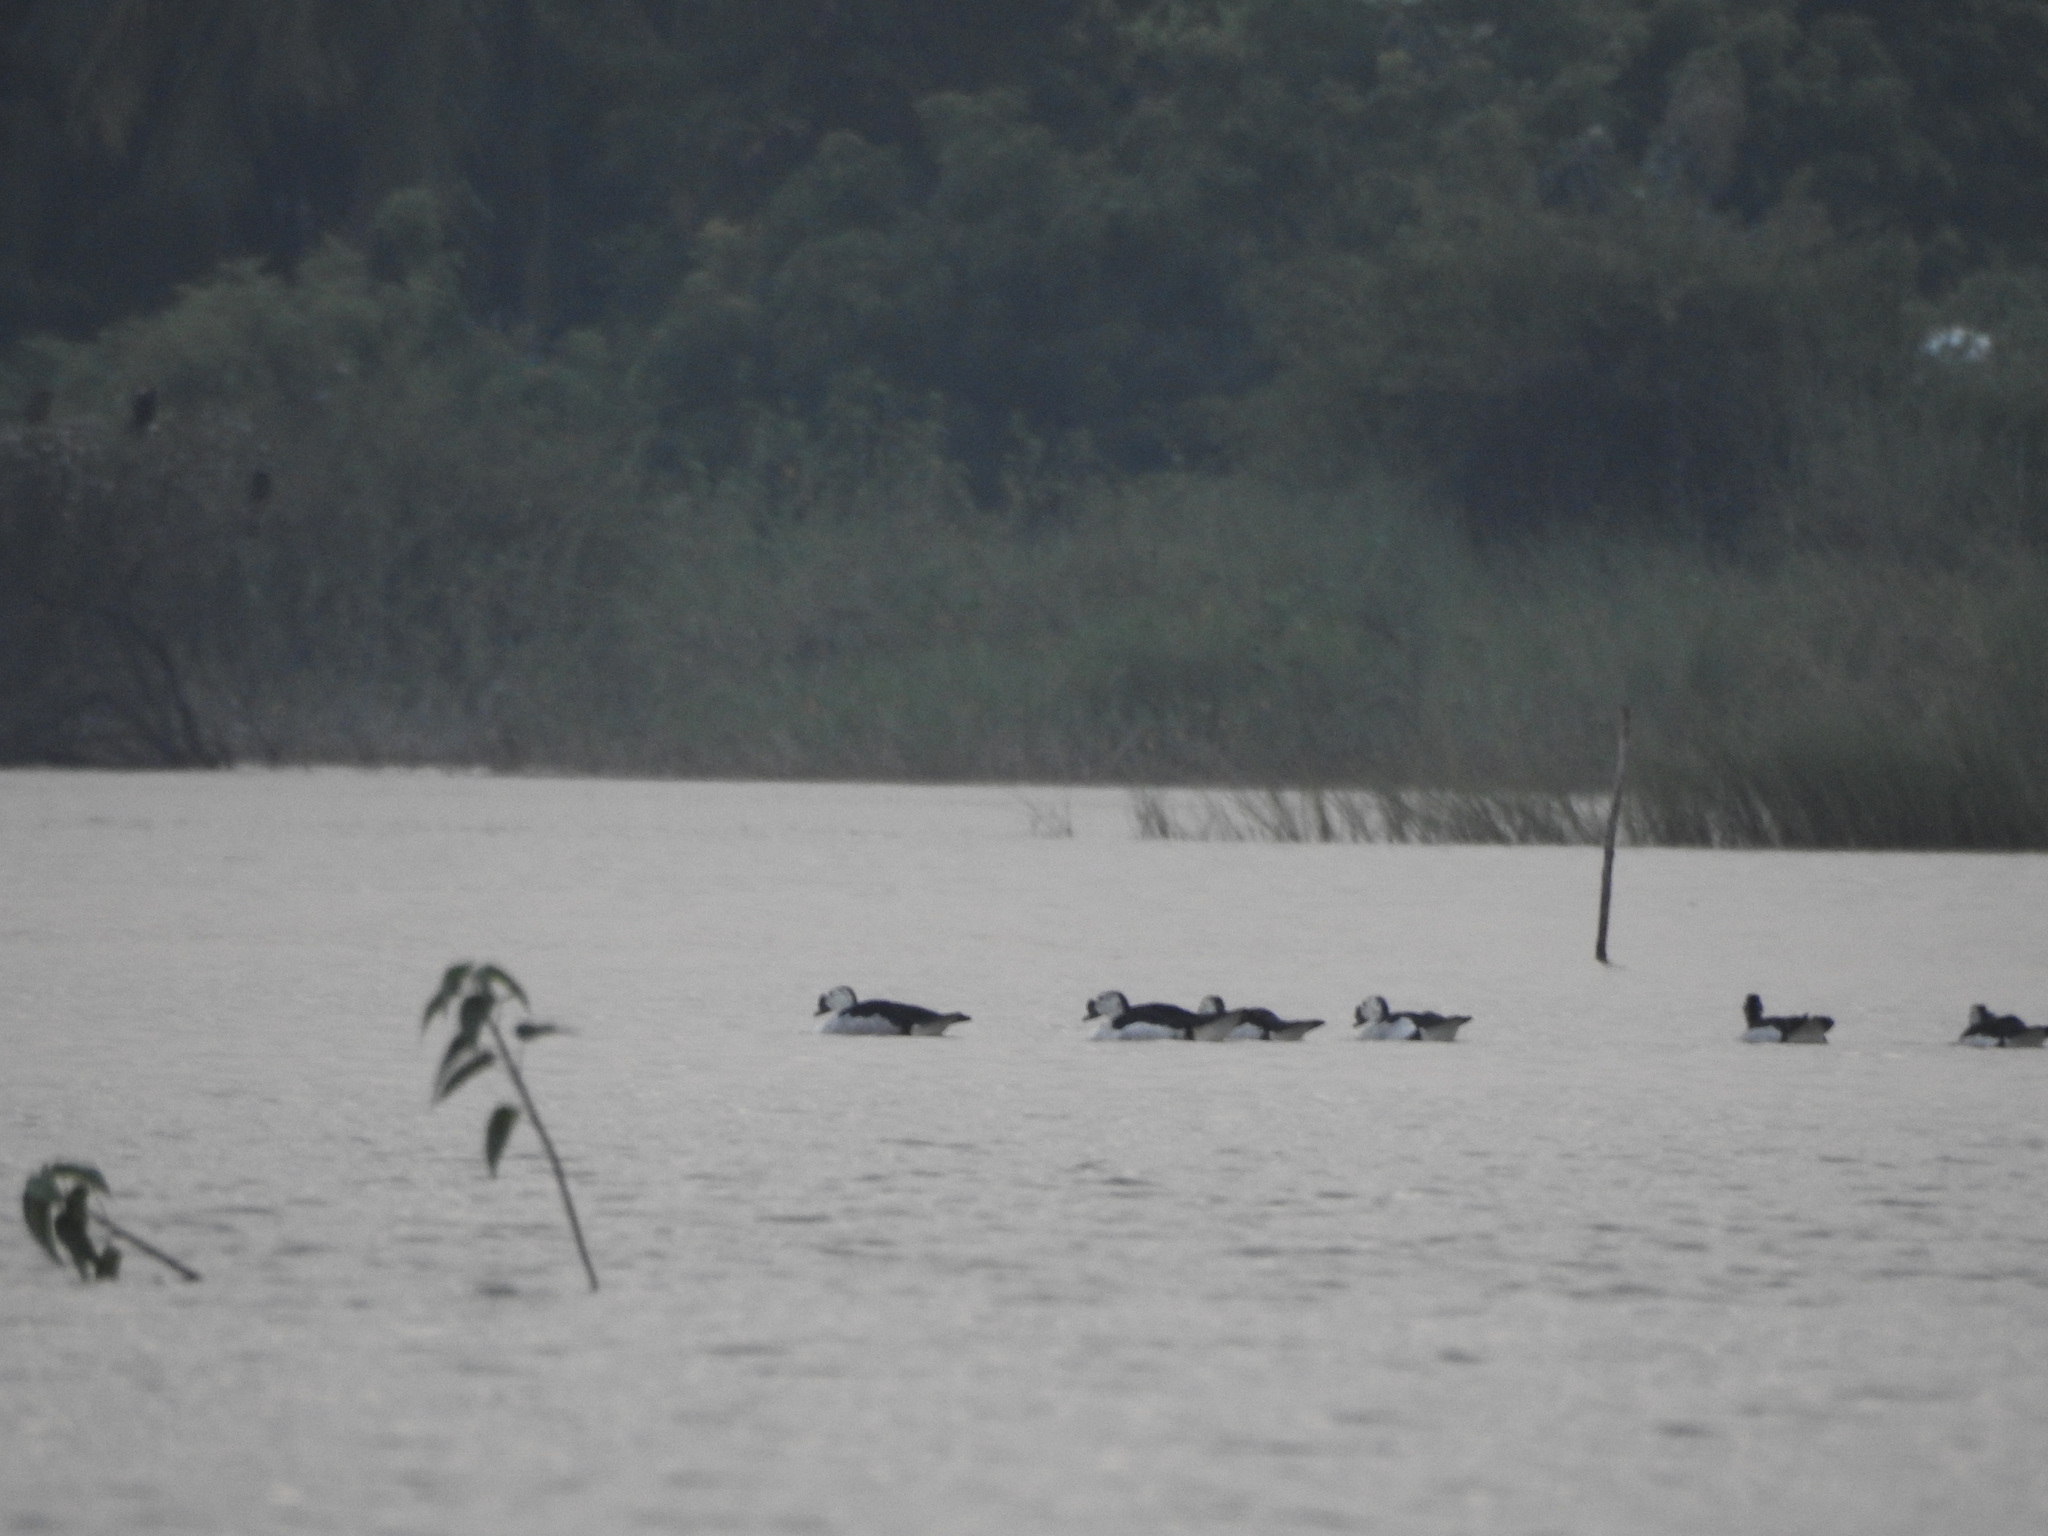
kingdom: Animalia
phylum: Chordata
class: Aves
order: Anseriformes
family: Anatidae
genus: Sarkidiornis
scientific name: Sarkidiornis melanotos
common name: Comb duck
